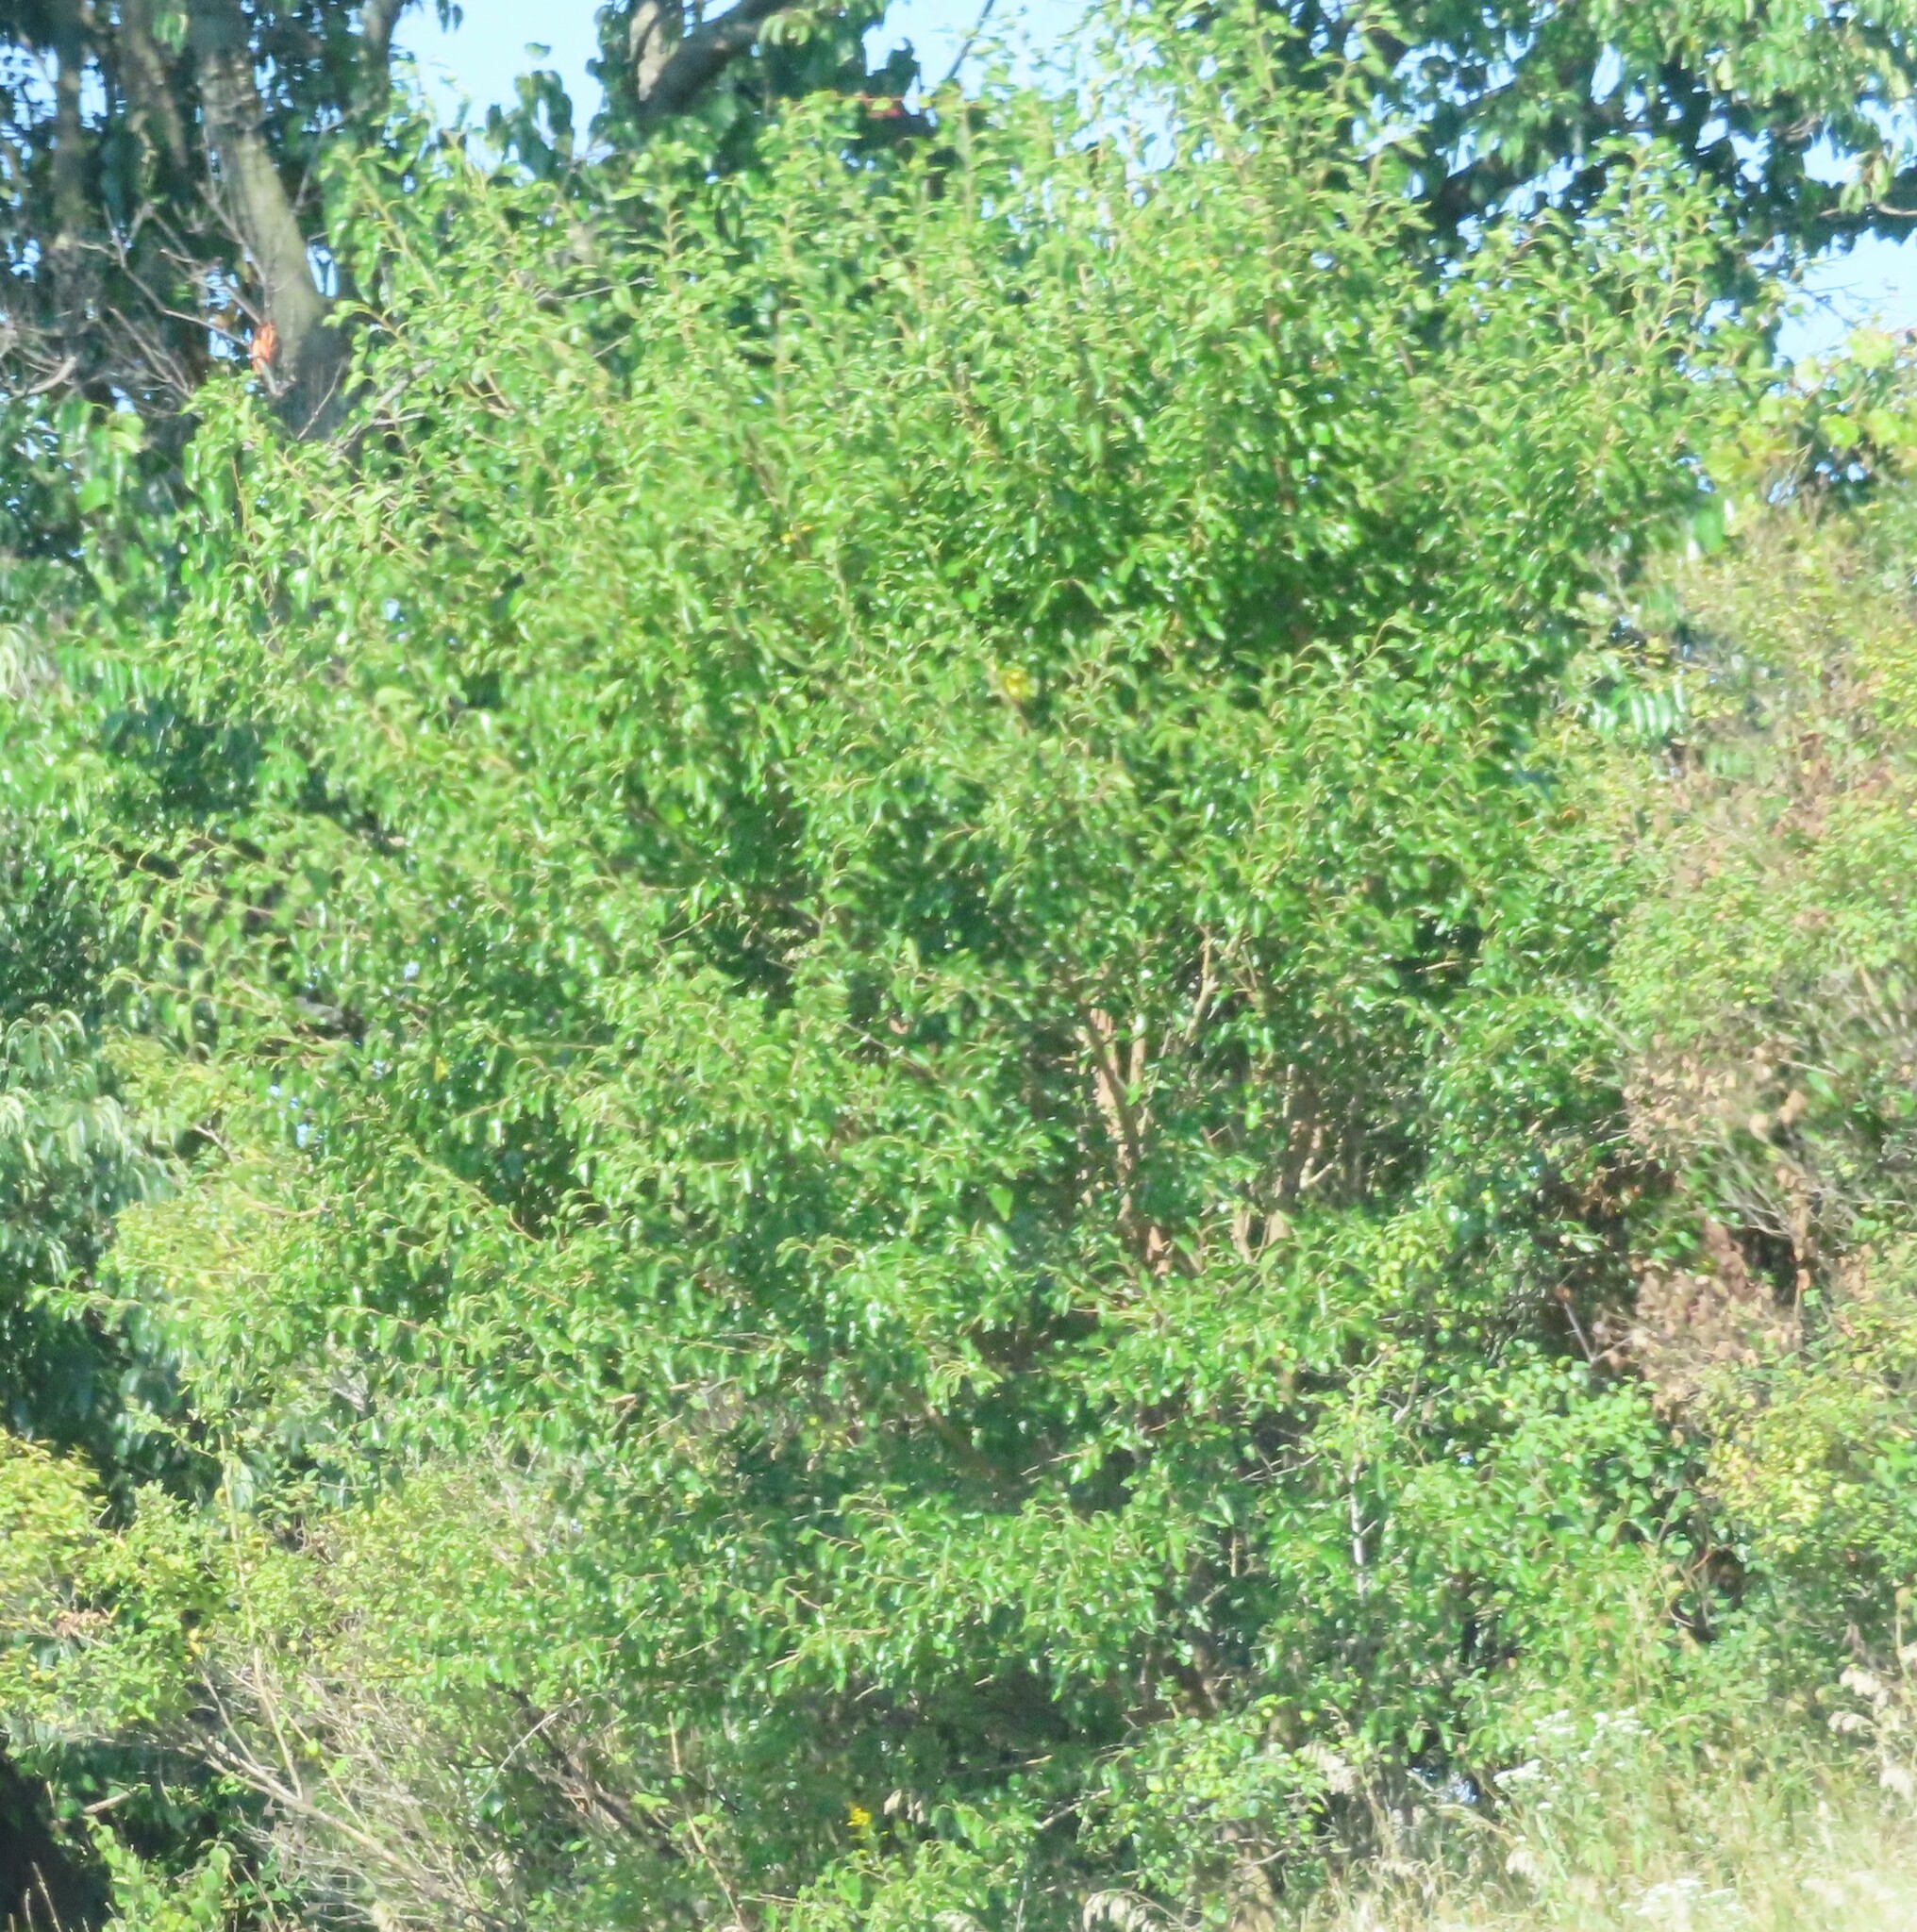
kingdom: Plantae
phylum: Tracheophyta
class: Magnoliopsida
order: Rosales
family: Moraceae
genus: Morus
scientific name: Morus alba
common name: White mulberry
